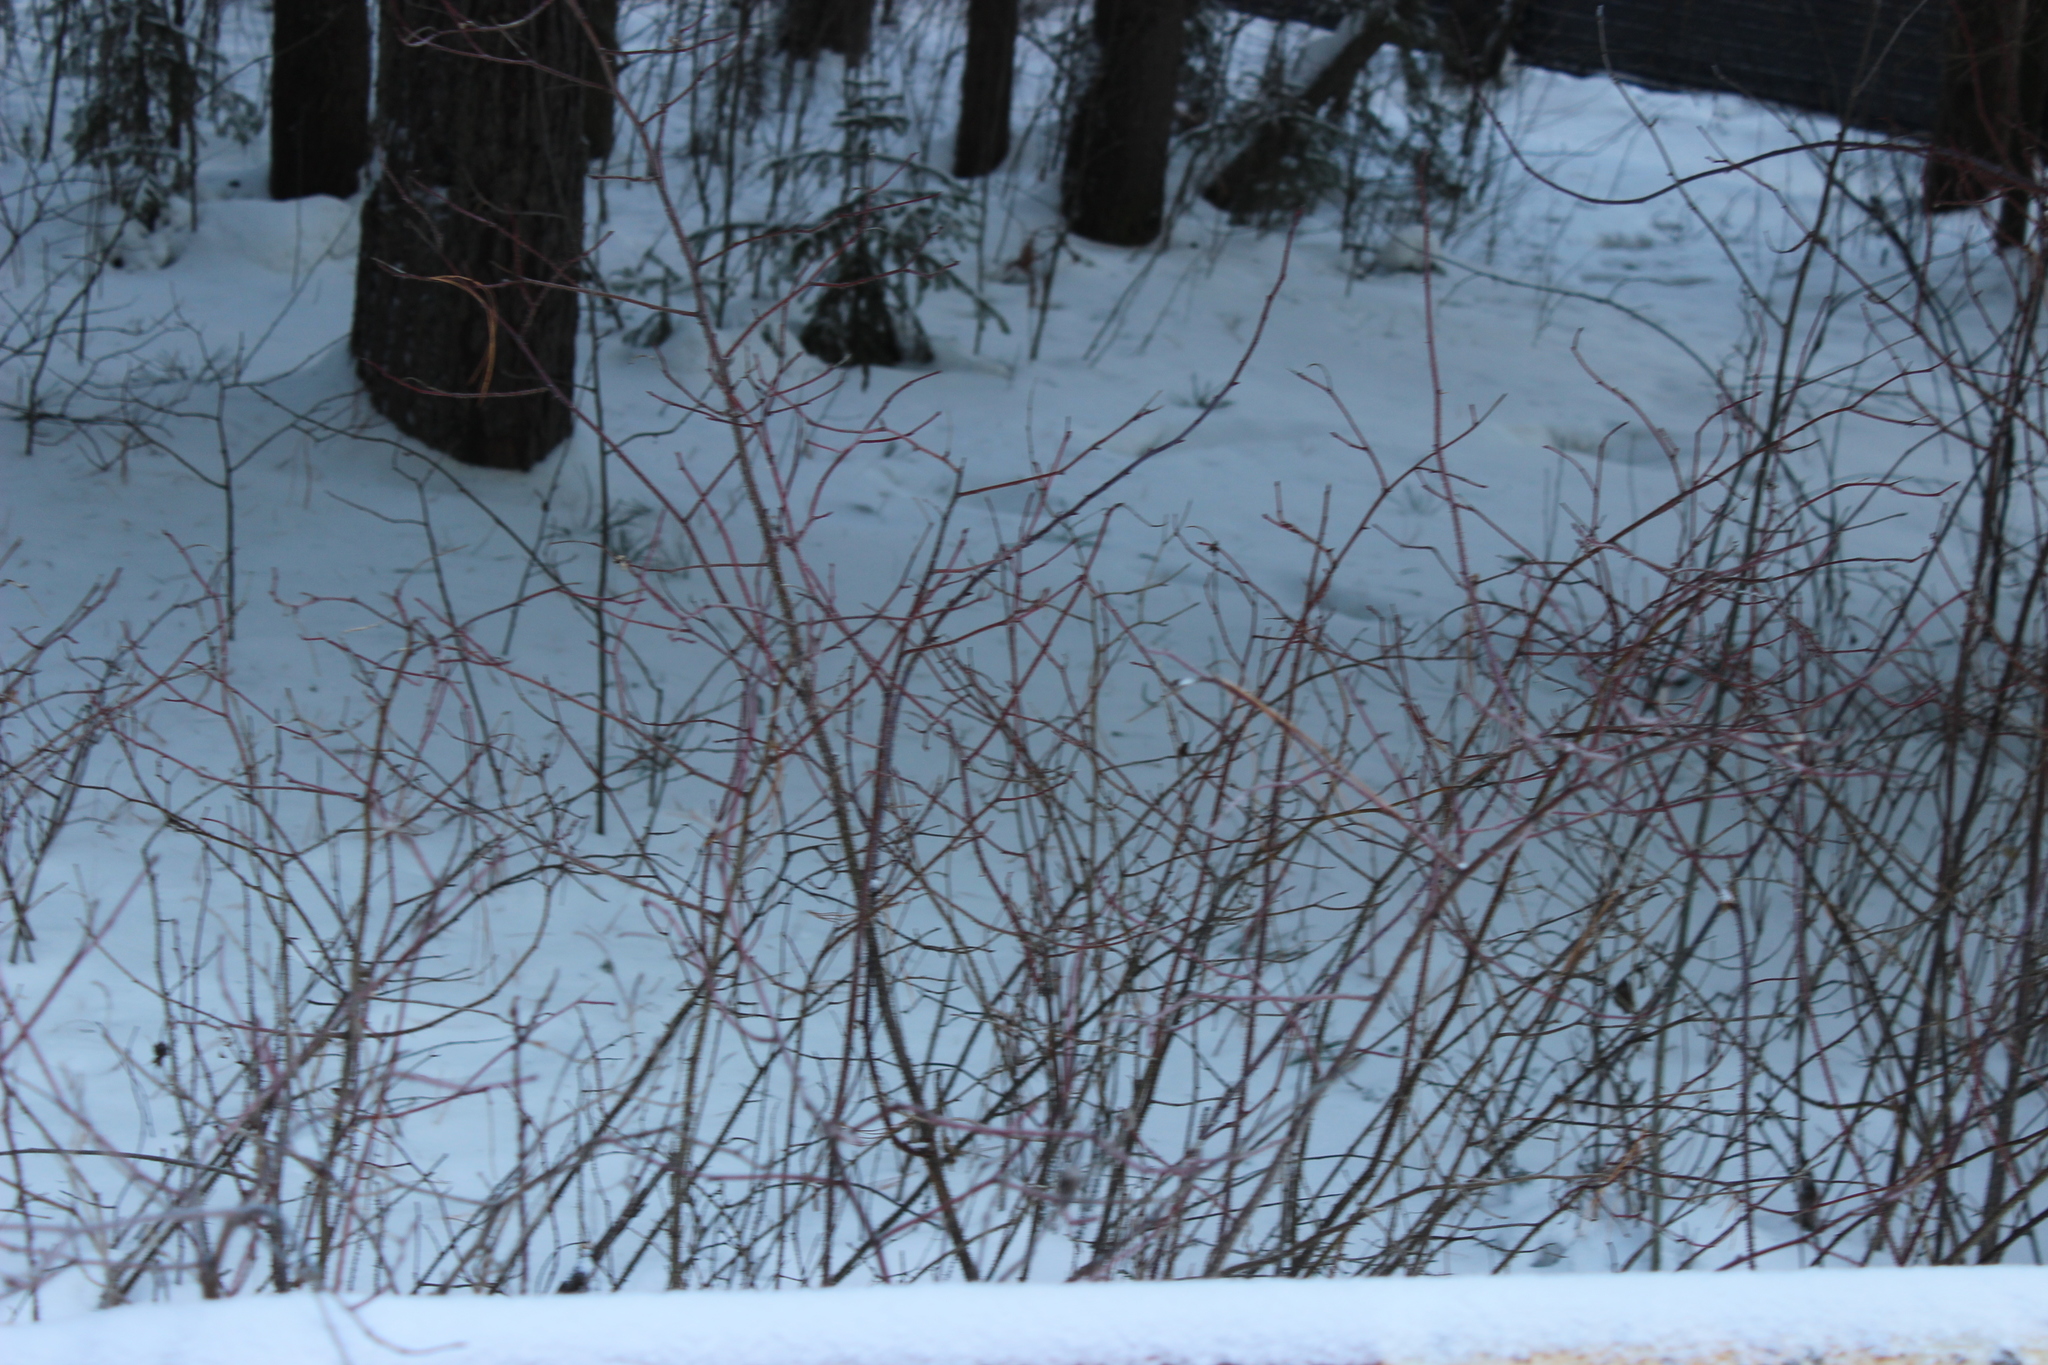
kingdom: Plantae
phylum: Tracheophyta
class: Magnoliopsida
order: Rosales
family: Rosaceae
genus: Rosa
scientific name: Rosa
